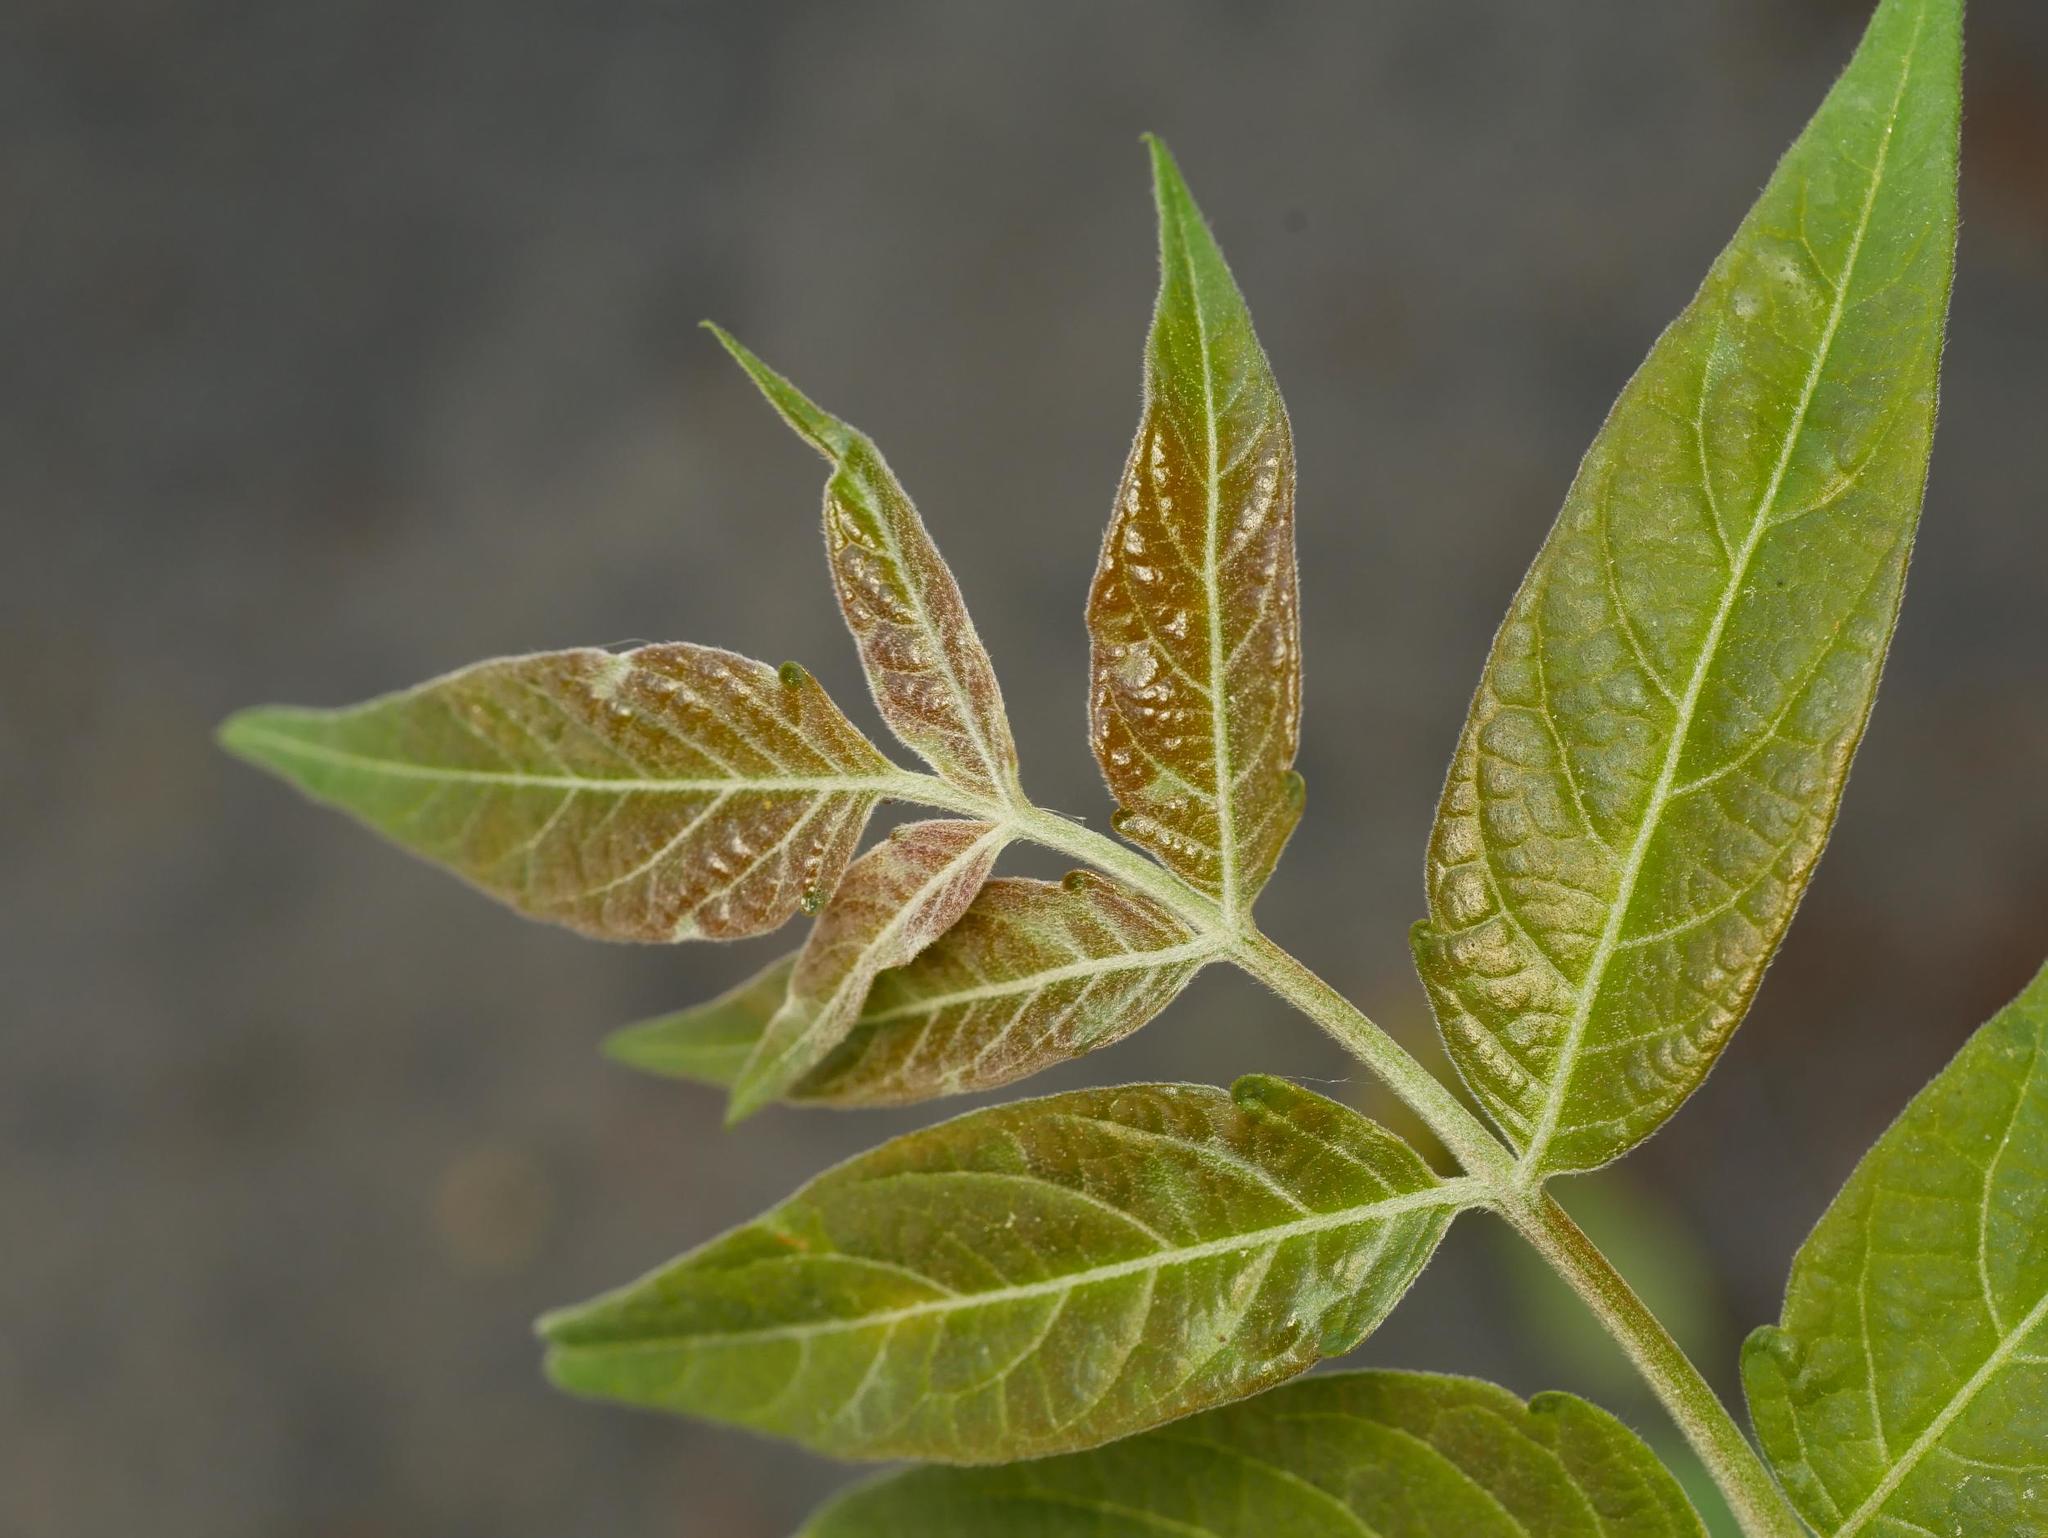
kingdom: Plantae
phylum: Tracheophyta
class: Magnoliopsida
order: Sapindales
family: Simaroubaceae
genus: Ailanthus
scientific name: Ailanthus altissima
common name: Tree-of-heaven
